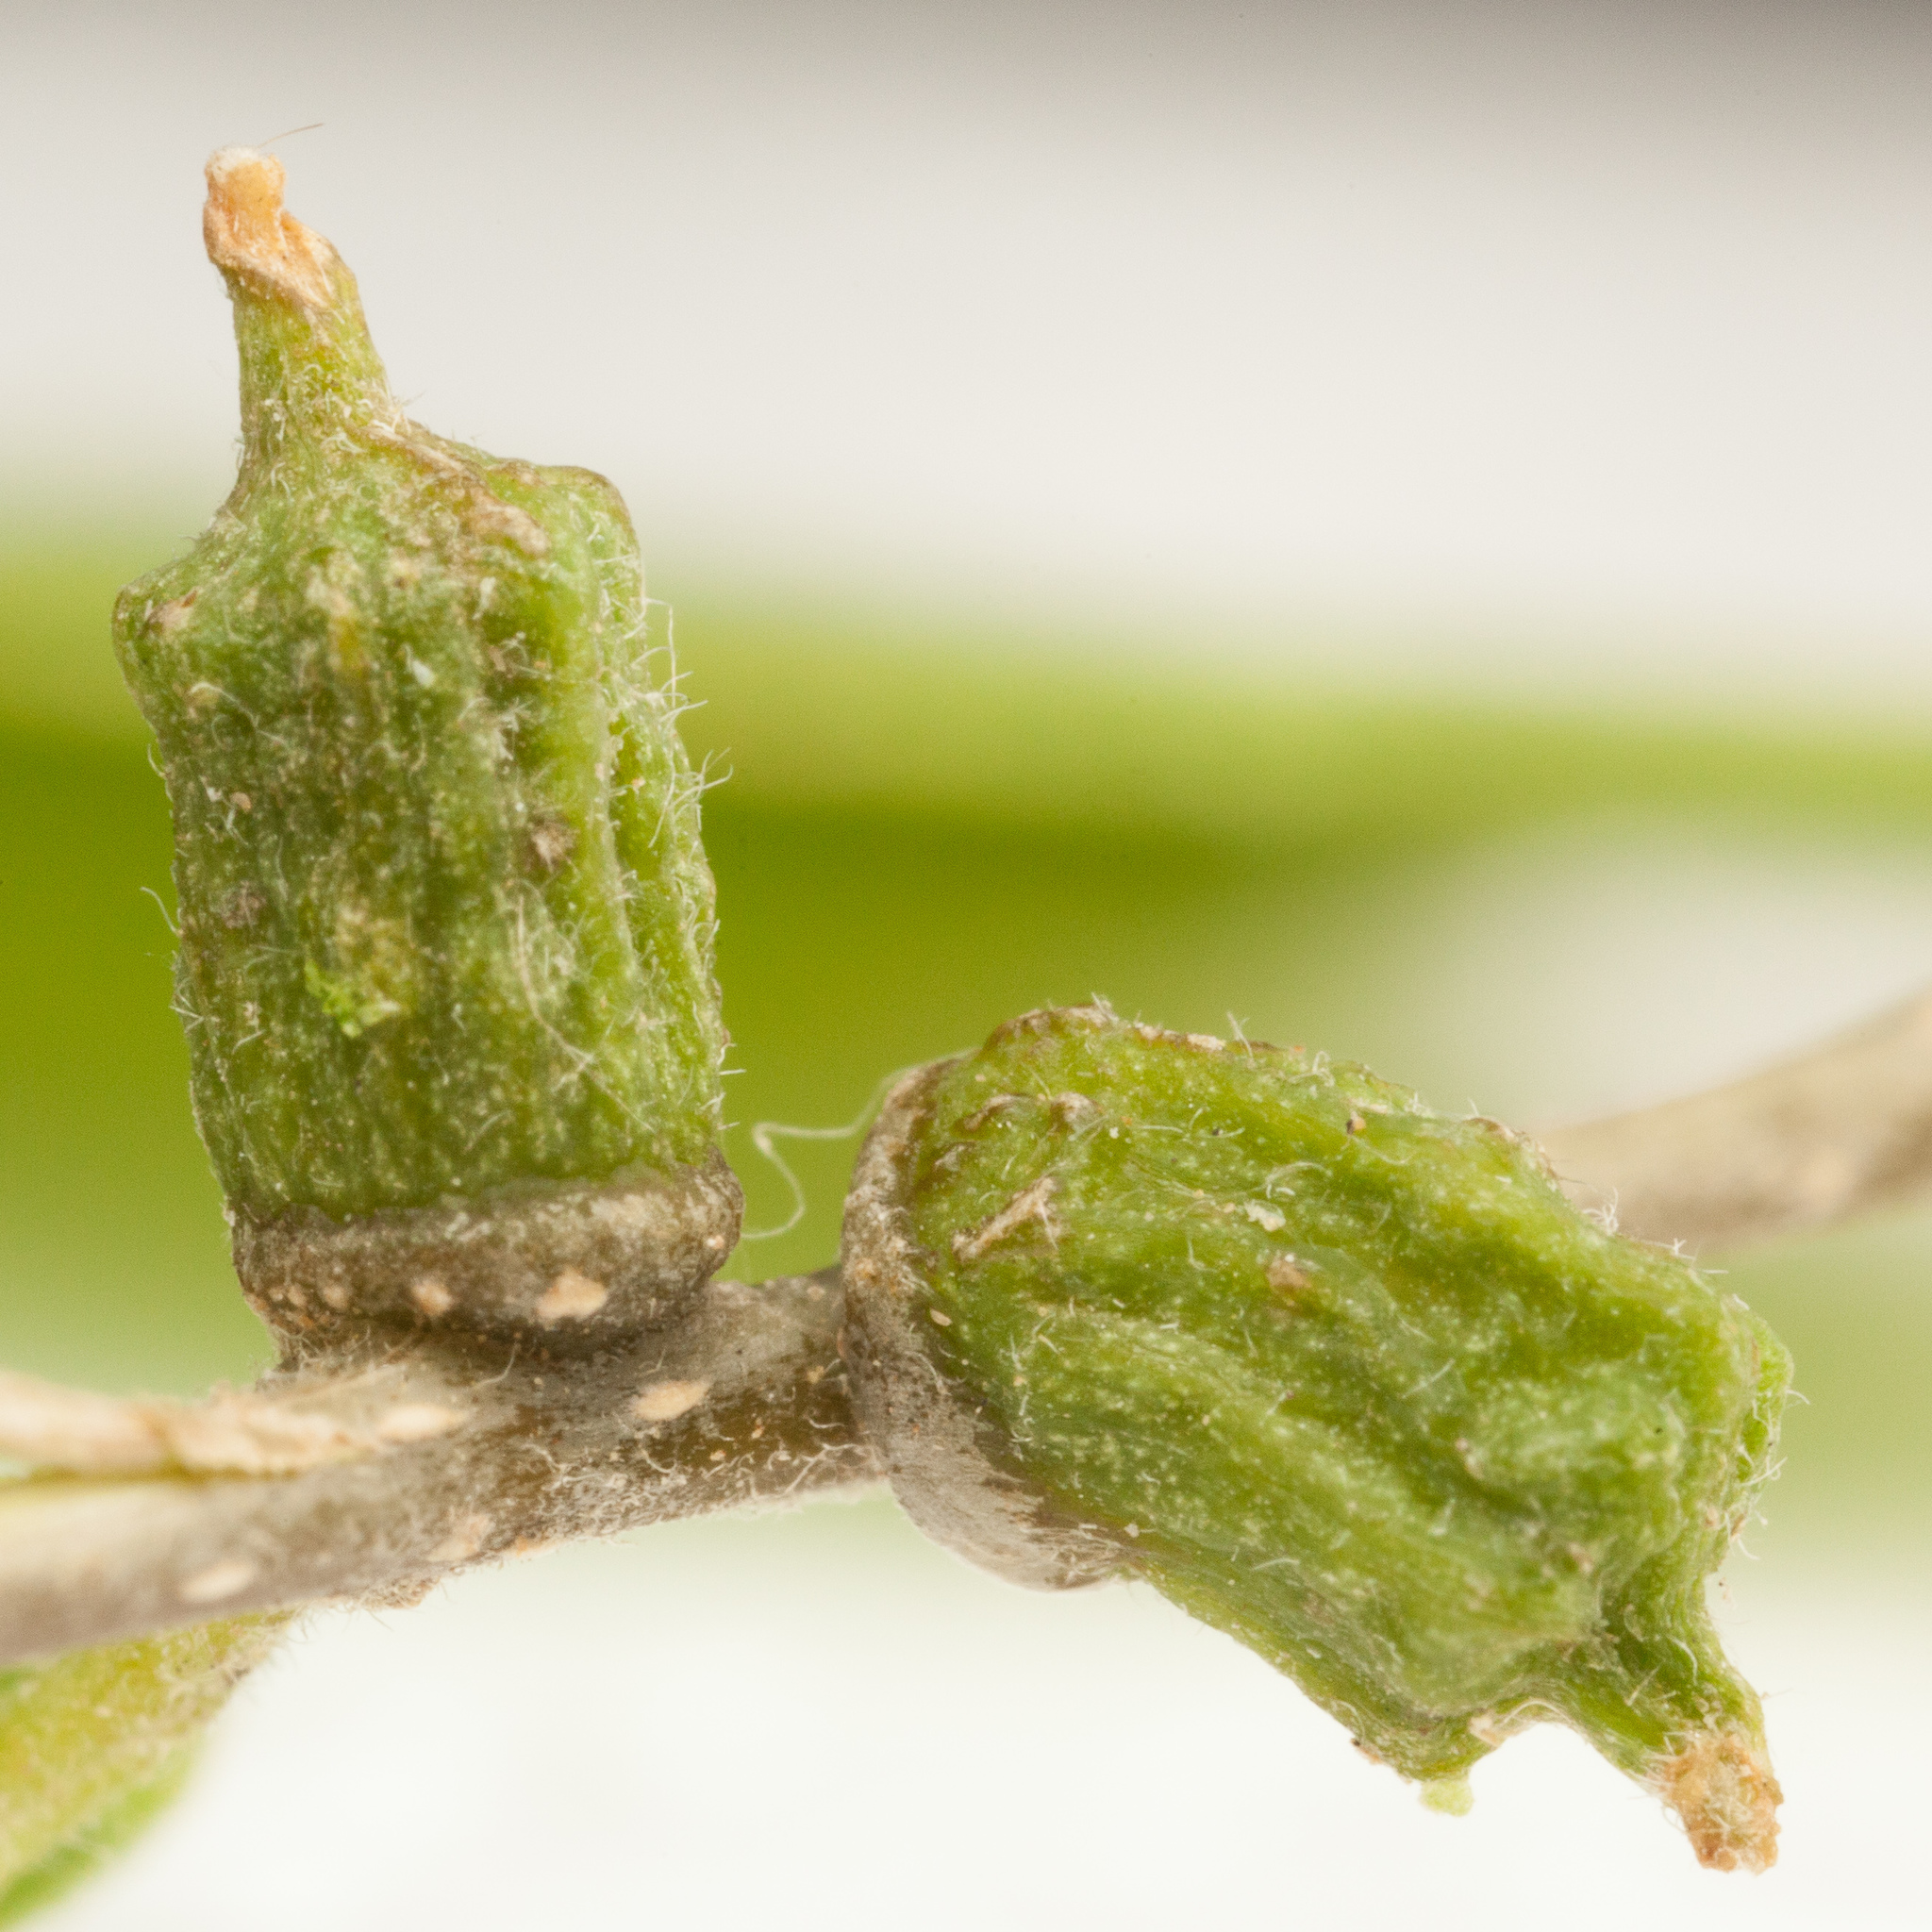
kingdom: Animalia
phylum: Arthropoda
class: Insecta
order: Diptera
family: Cecidomyiidae
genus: Celticecis
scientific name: Celticecis ramicola
